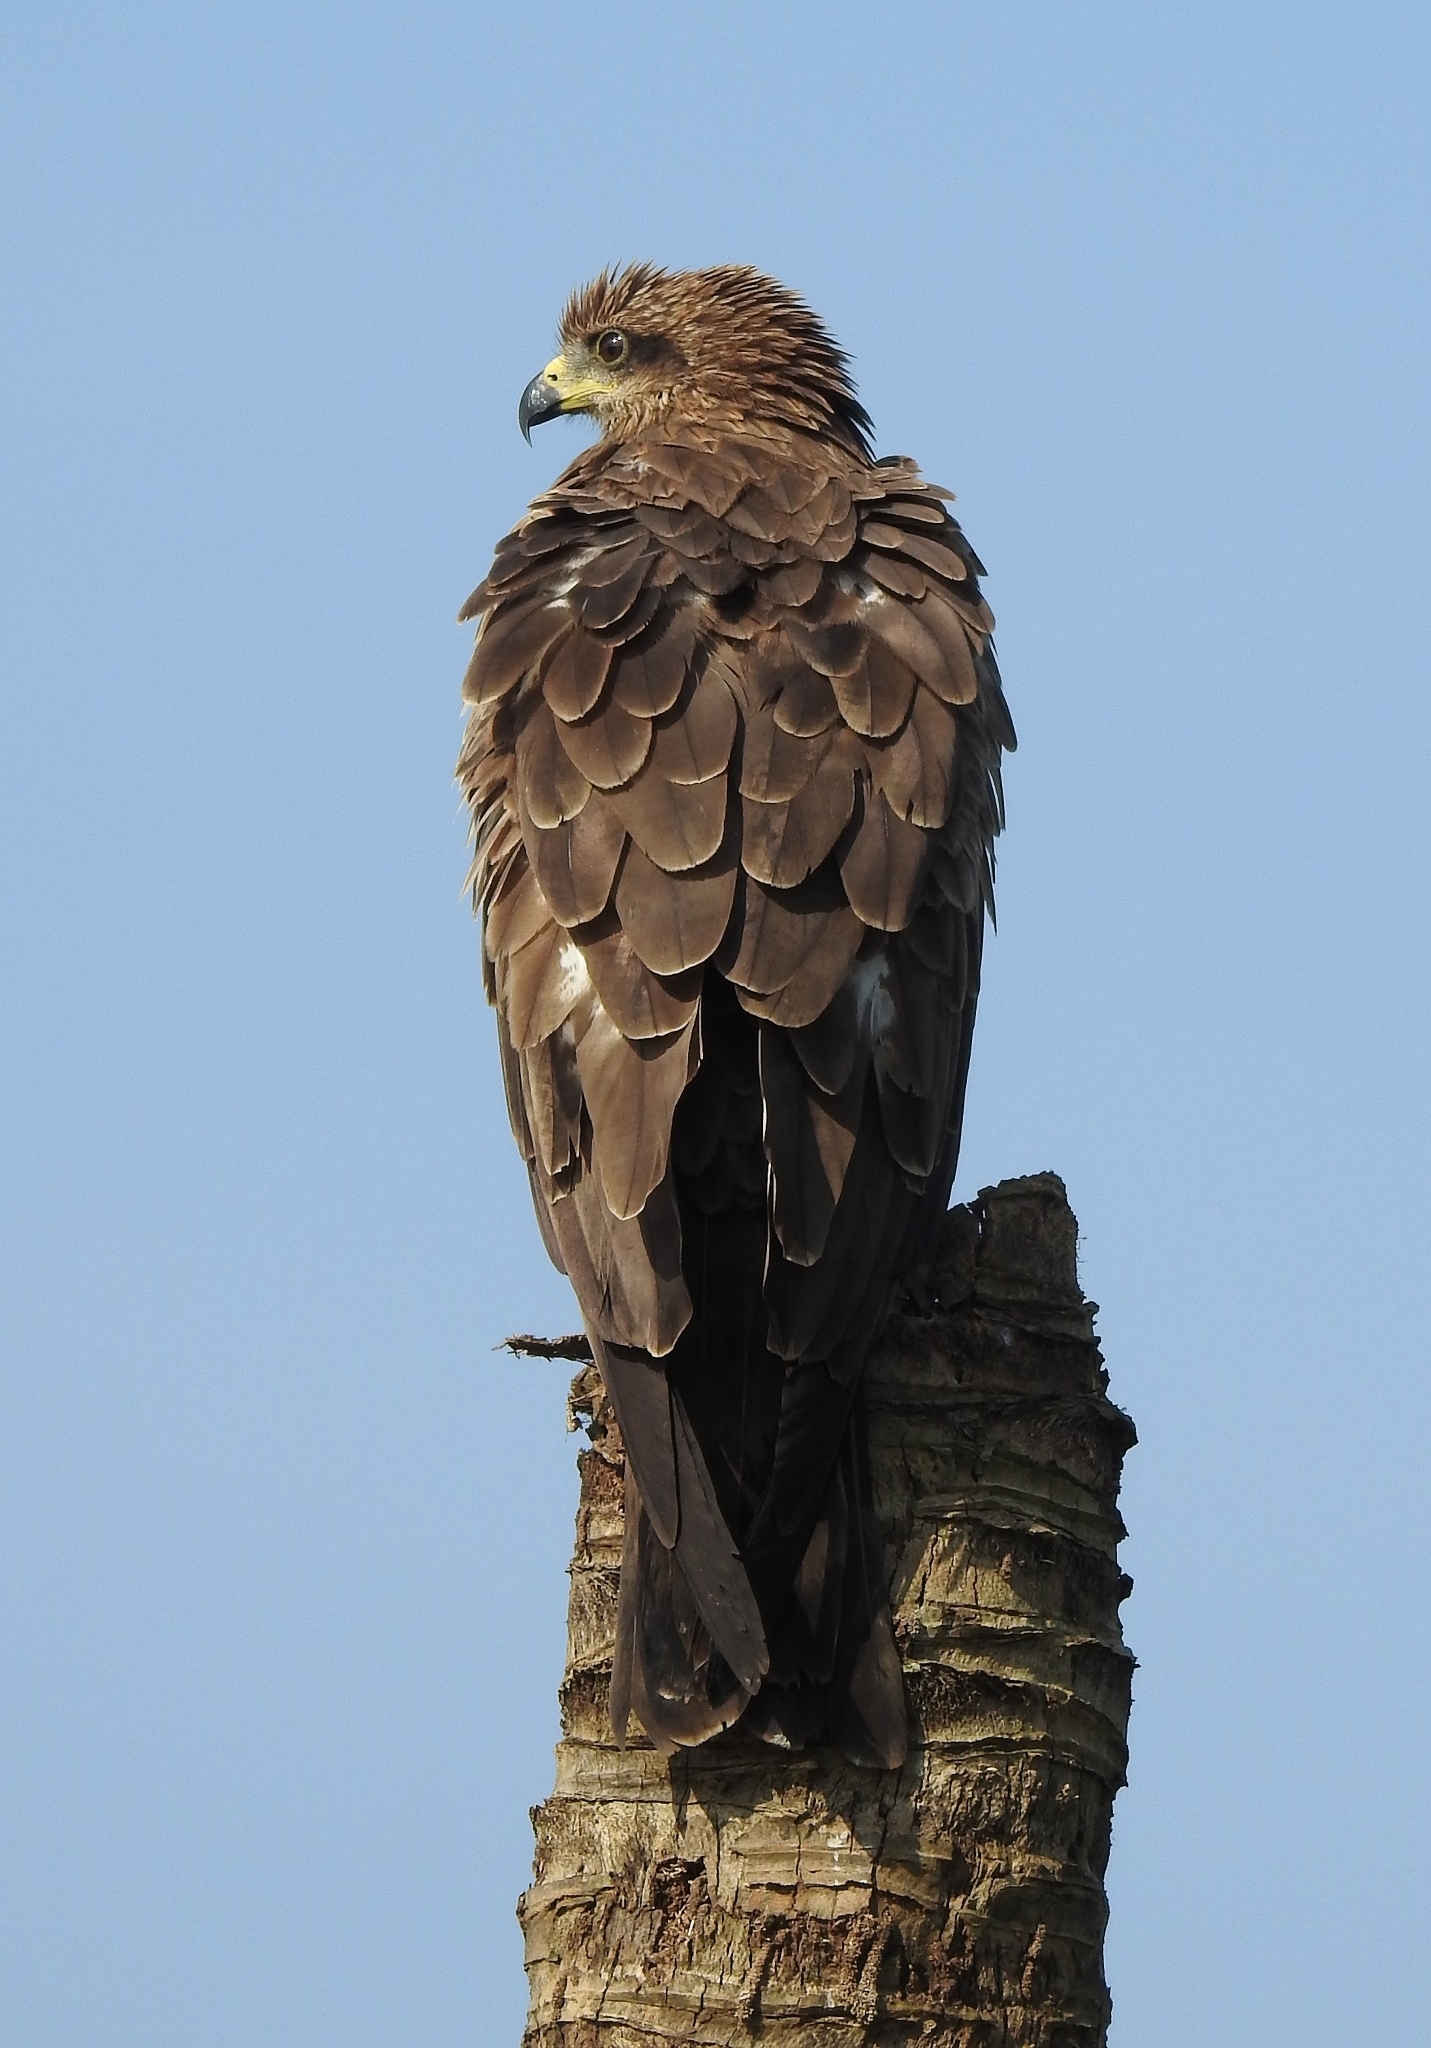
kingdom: Animalia
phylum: Chordata
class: Aves
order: Accipitriformes
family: Accipitridae
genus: Milvus
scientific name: Milvus migrans
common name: Black kite
